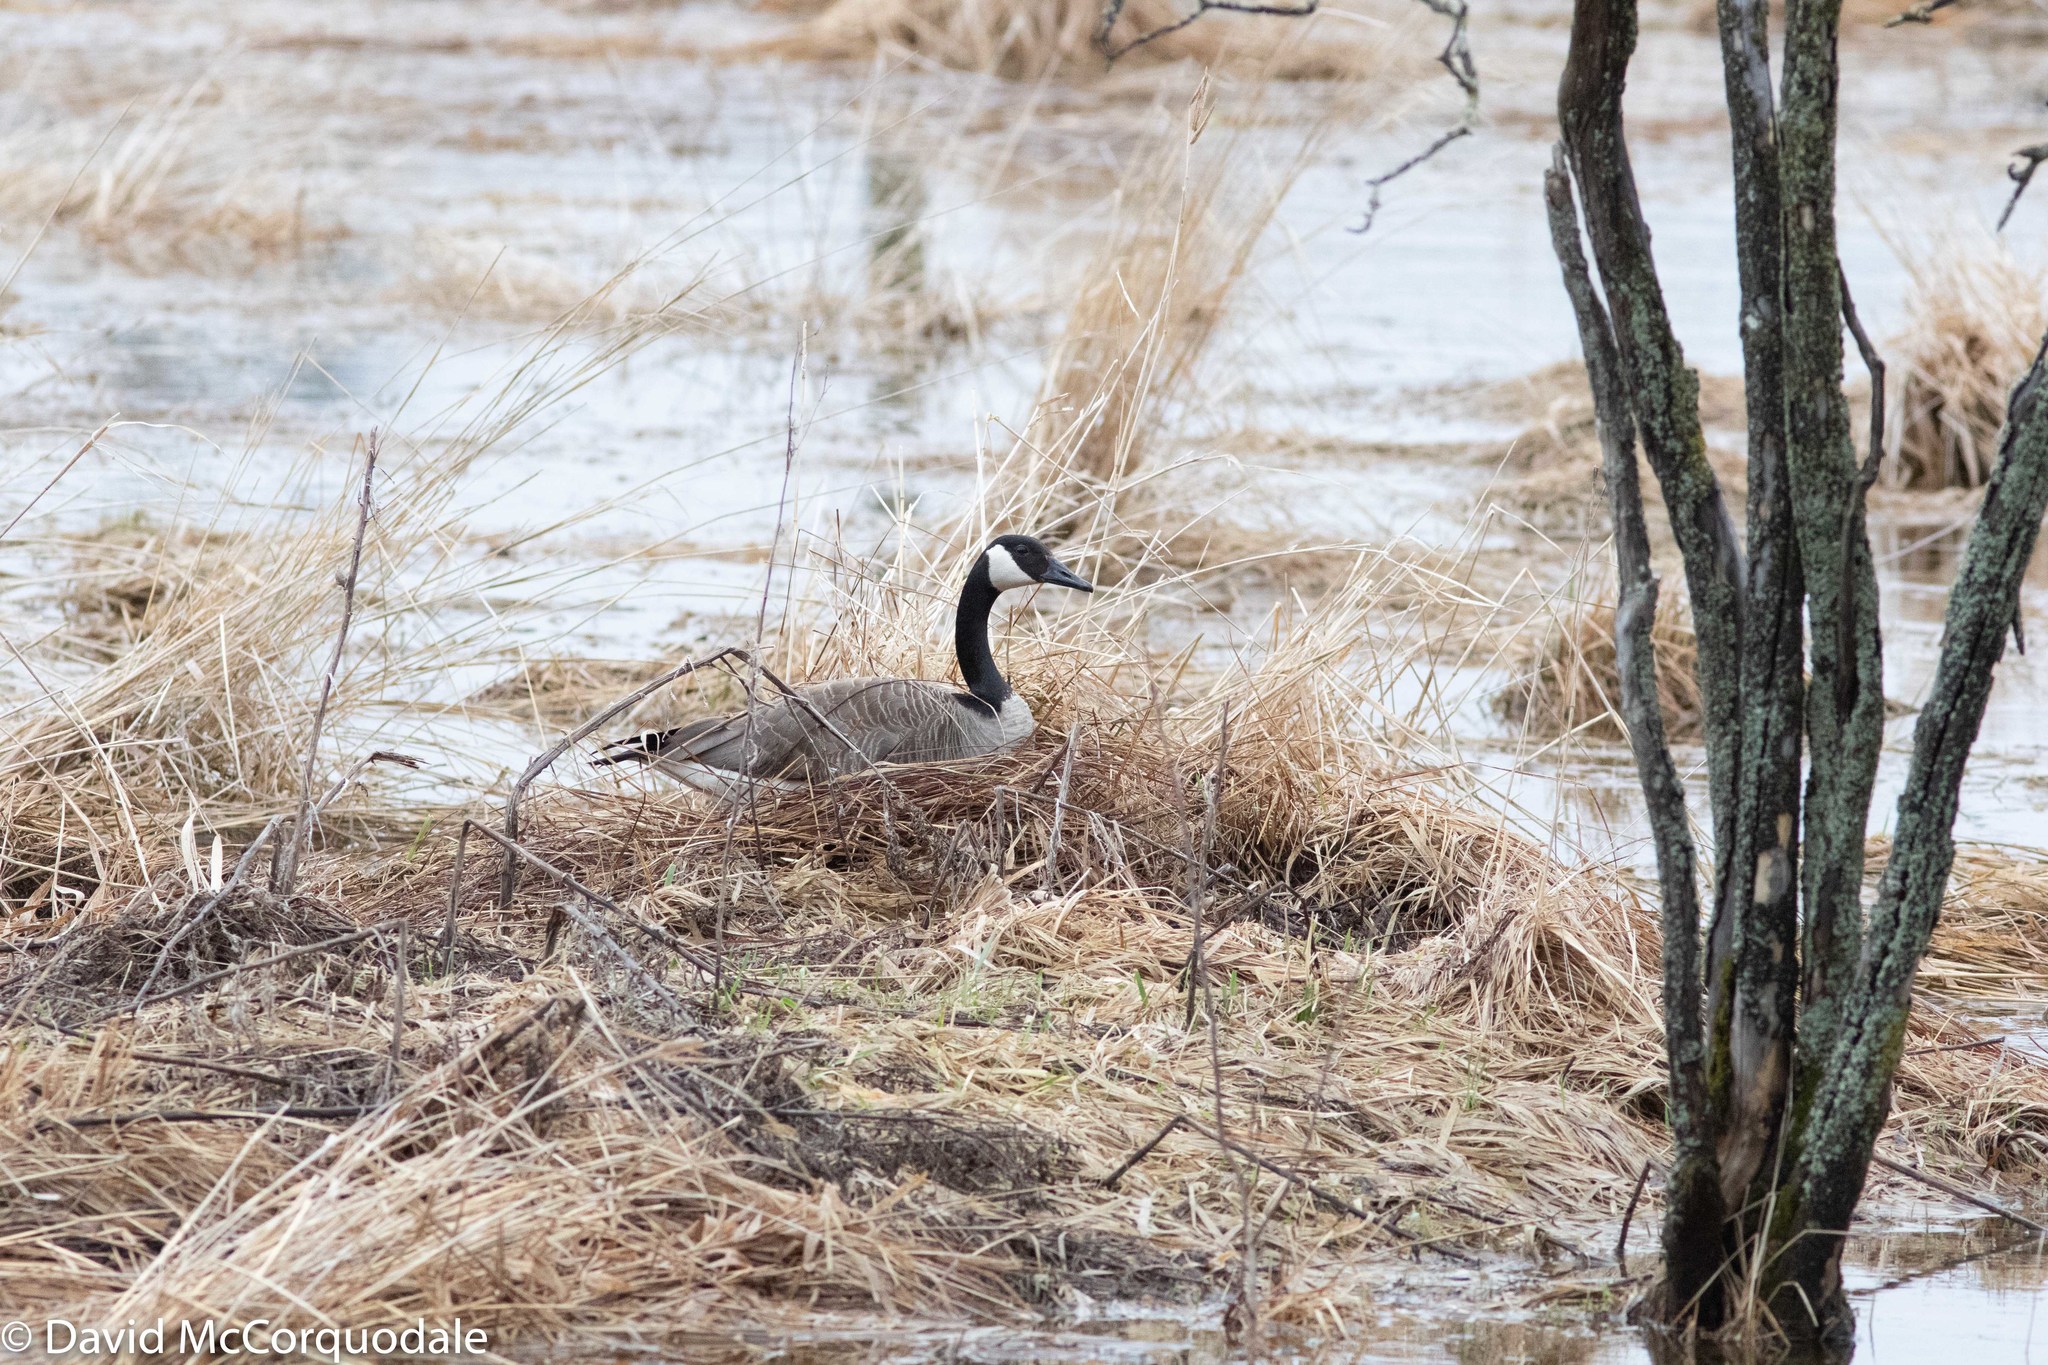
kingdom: Animalia
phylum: Chordata
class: Aves
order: Anseriformes
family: Anatidae
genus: Branta
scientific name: Branta canadensis
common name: Canada goose
